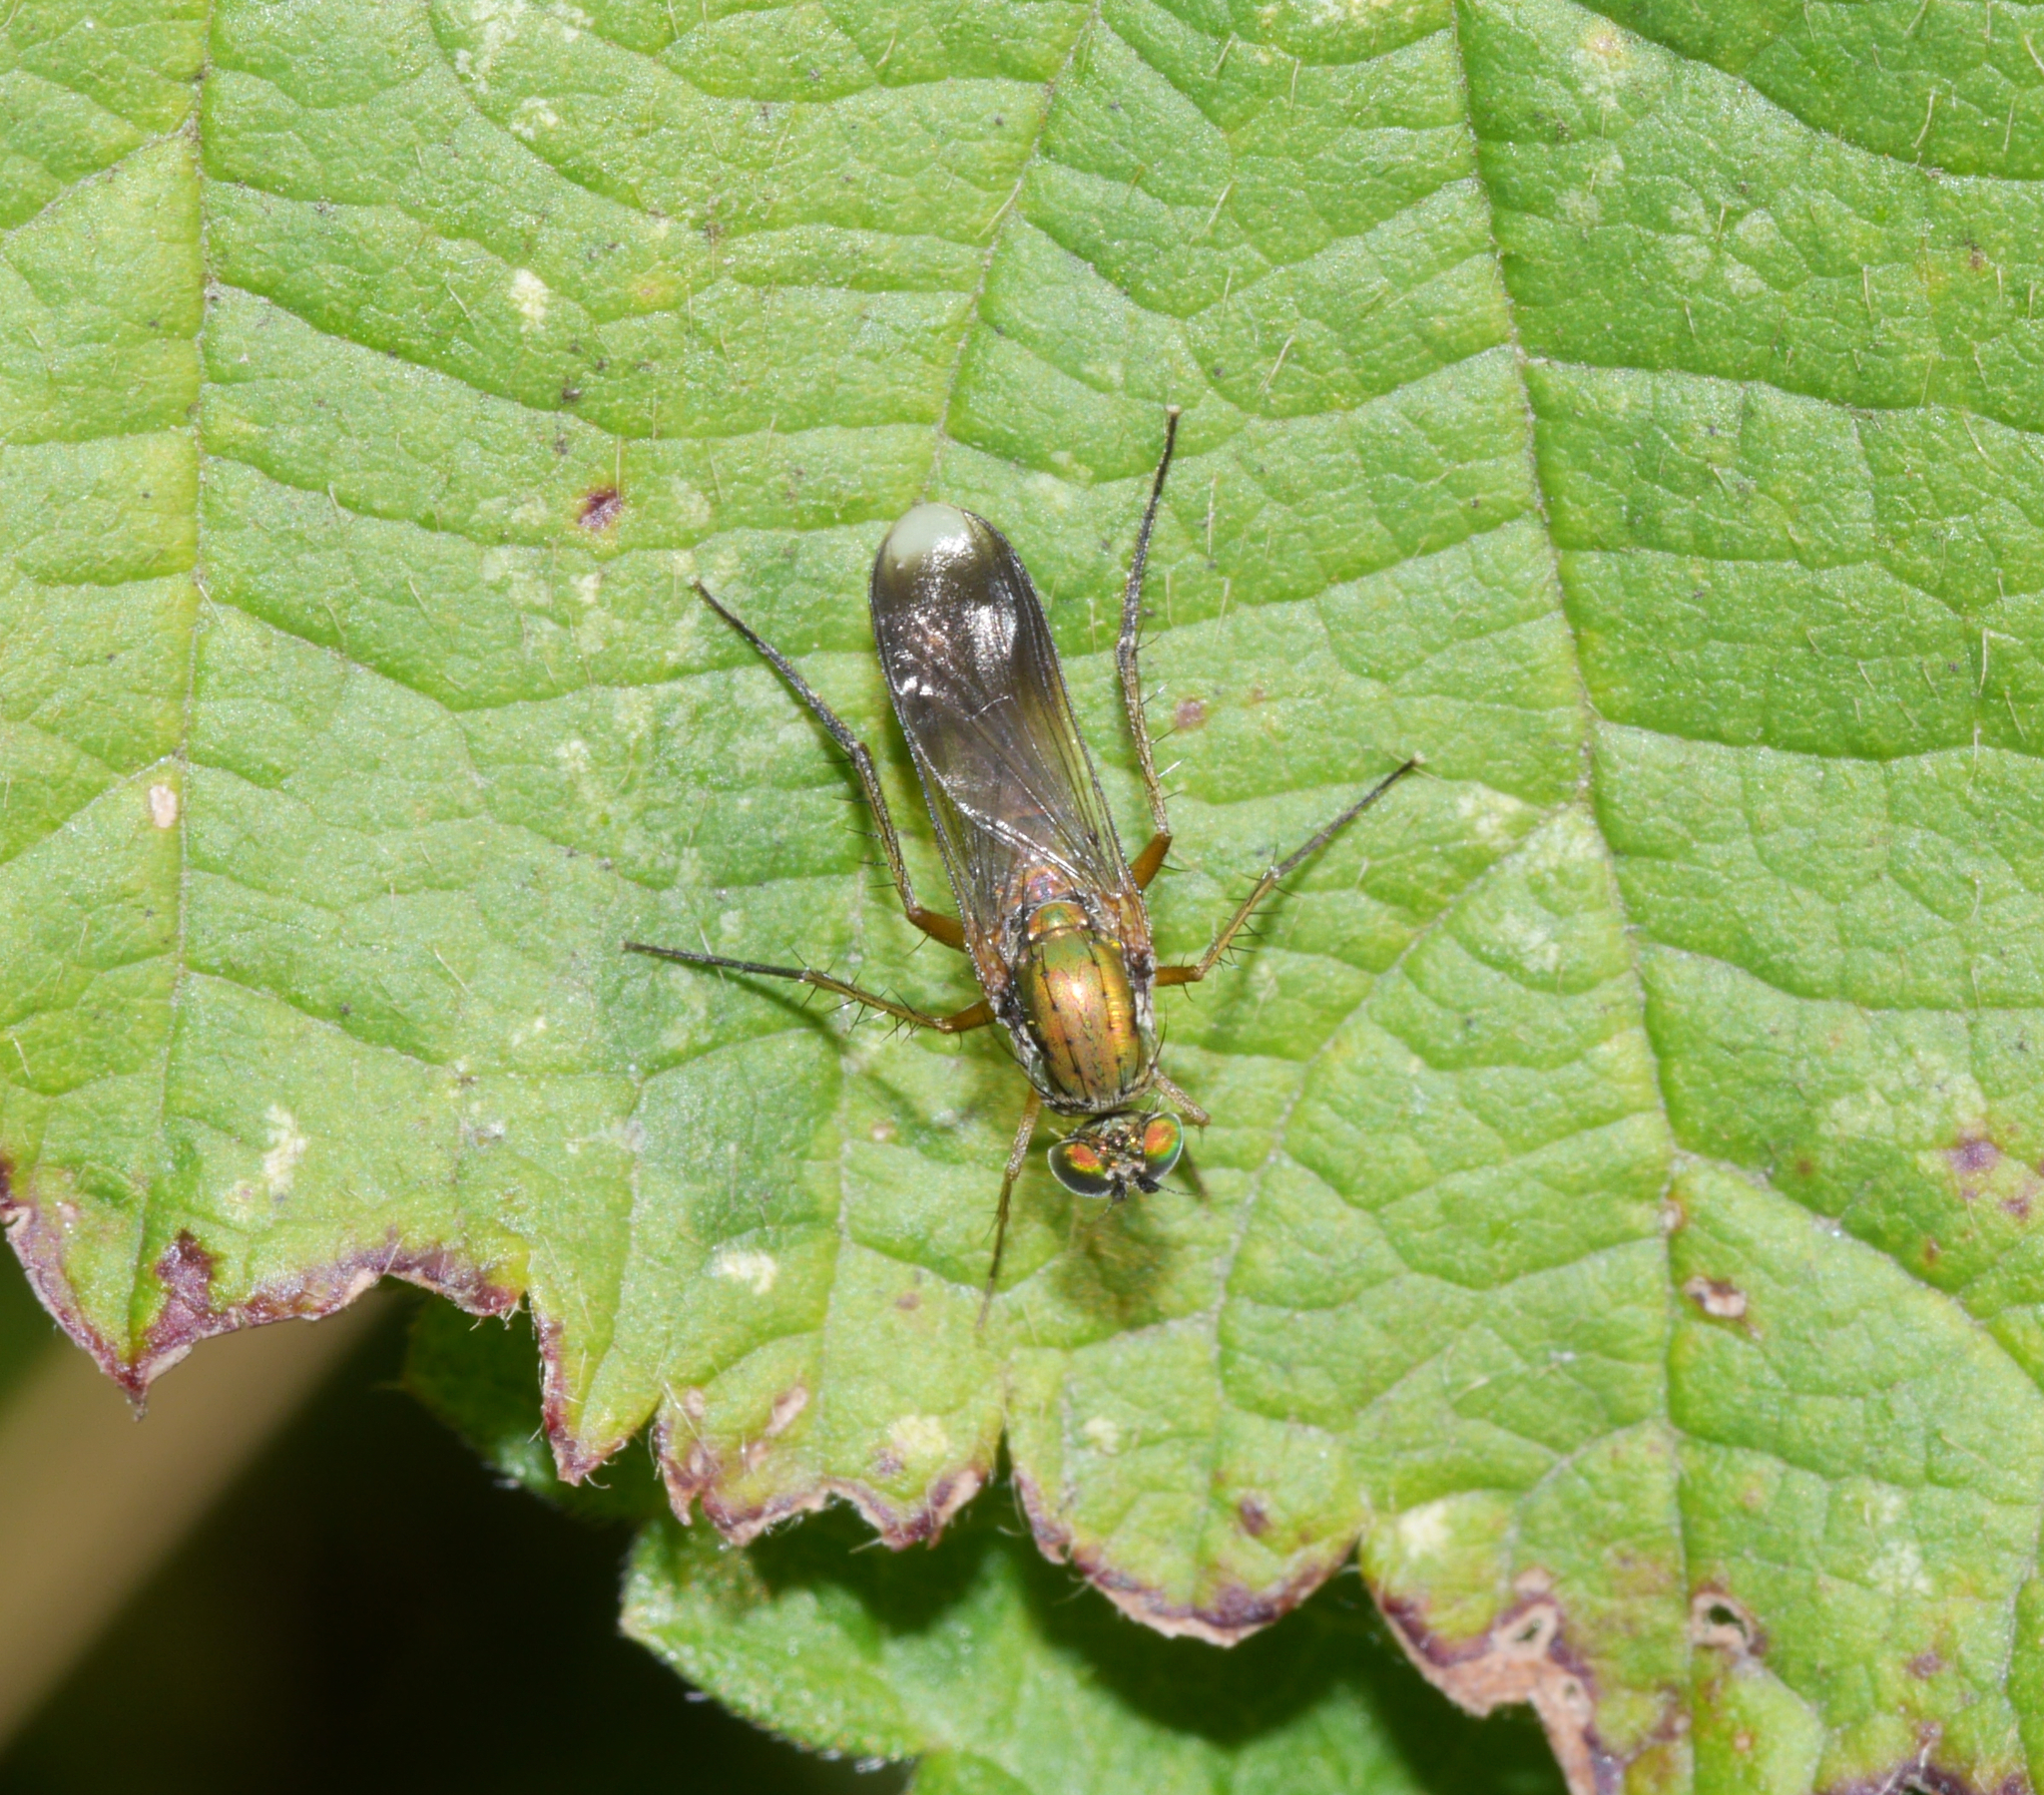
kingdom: Animalia
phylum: Arthropoda
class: Insecta
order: Diptera
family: Dolichopodidae
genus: Poecilobothrus
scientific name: Poecilobothrus nobilitatus
